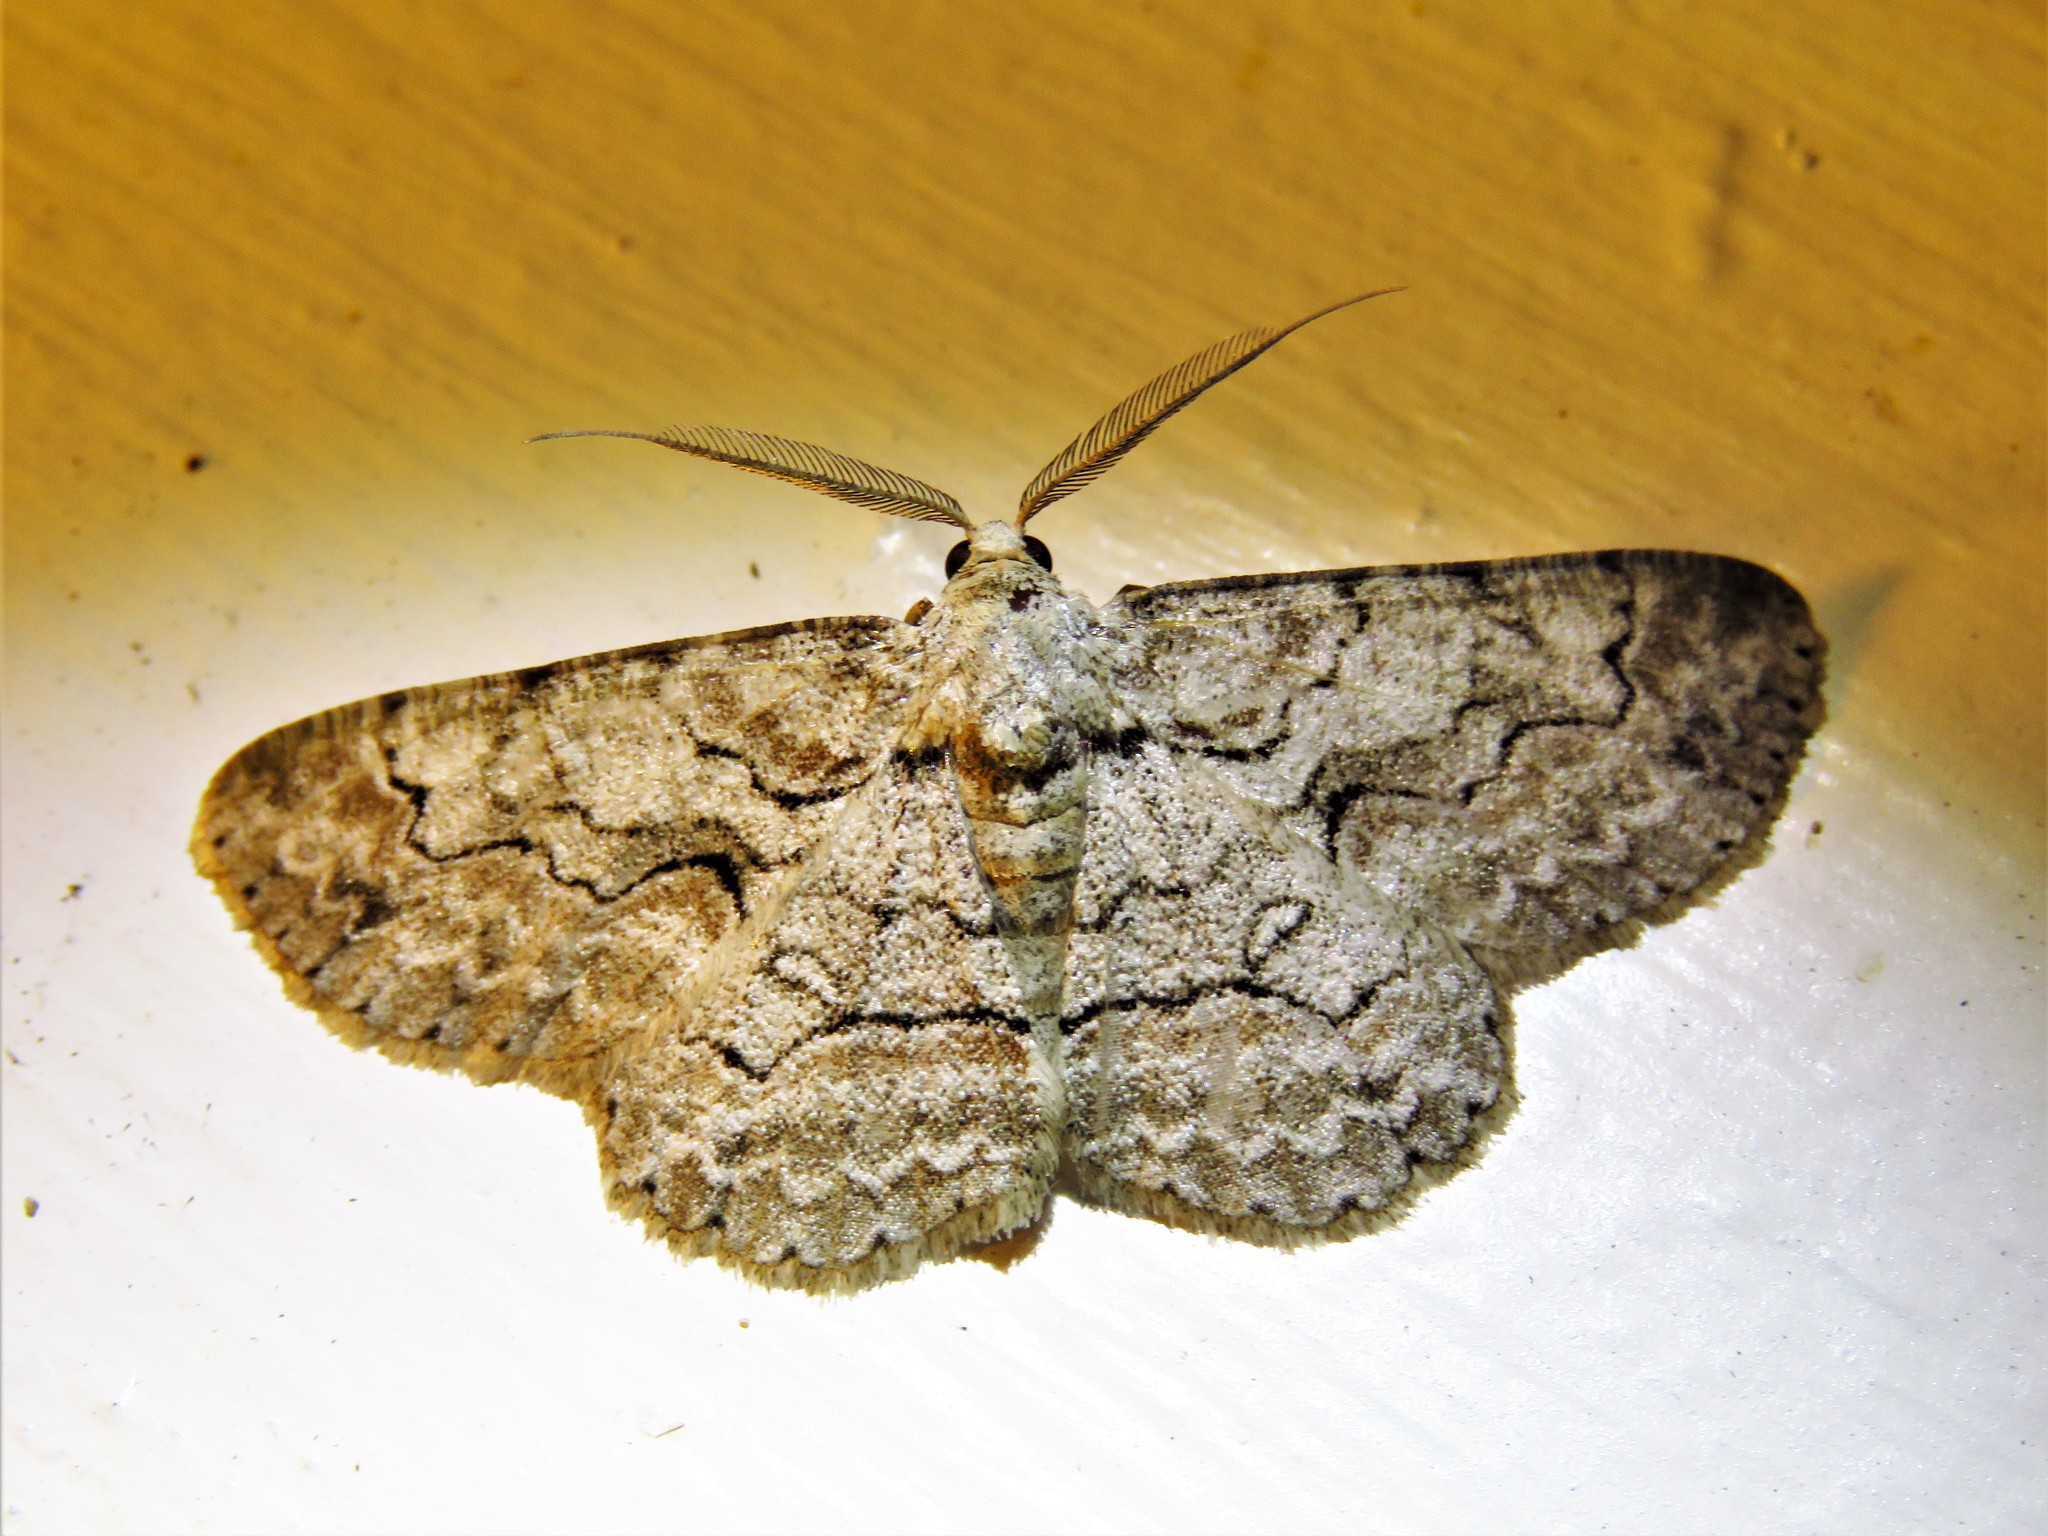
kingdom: Animalia
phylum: Arthropoda
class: Insecta
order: Lepidoptera
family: Geometridae
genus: Iridopsis
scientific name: Iridopsis defectaria
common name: Brown-shaded gray
